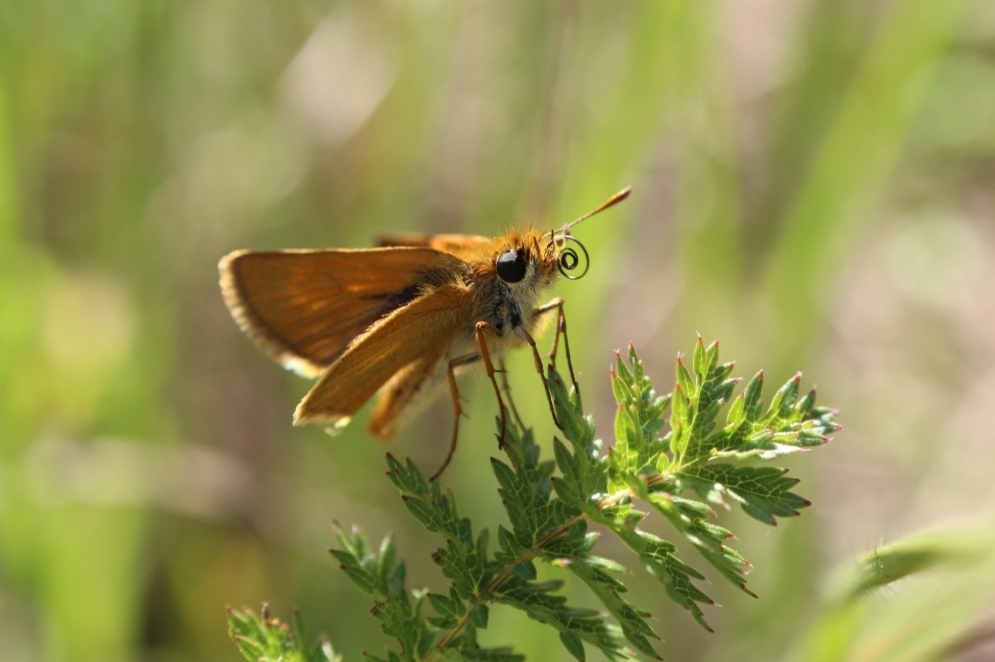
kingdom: Animalia
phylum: Arthropoda
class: Insecta
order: Lepidoptera
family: Hesperiidae
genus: Thymelicus
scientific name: Thymelicus acteon
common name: Lulworth skipper
